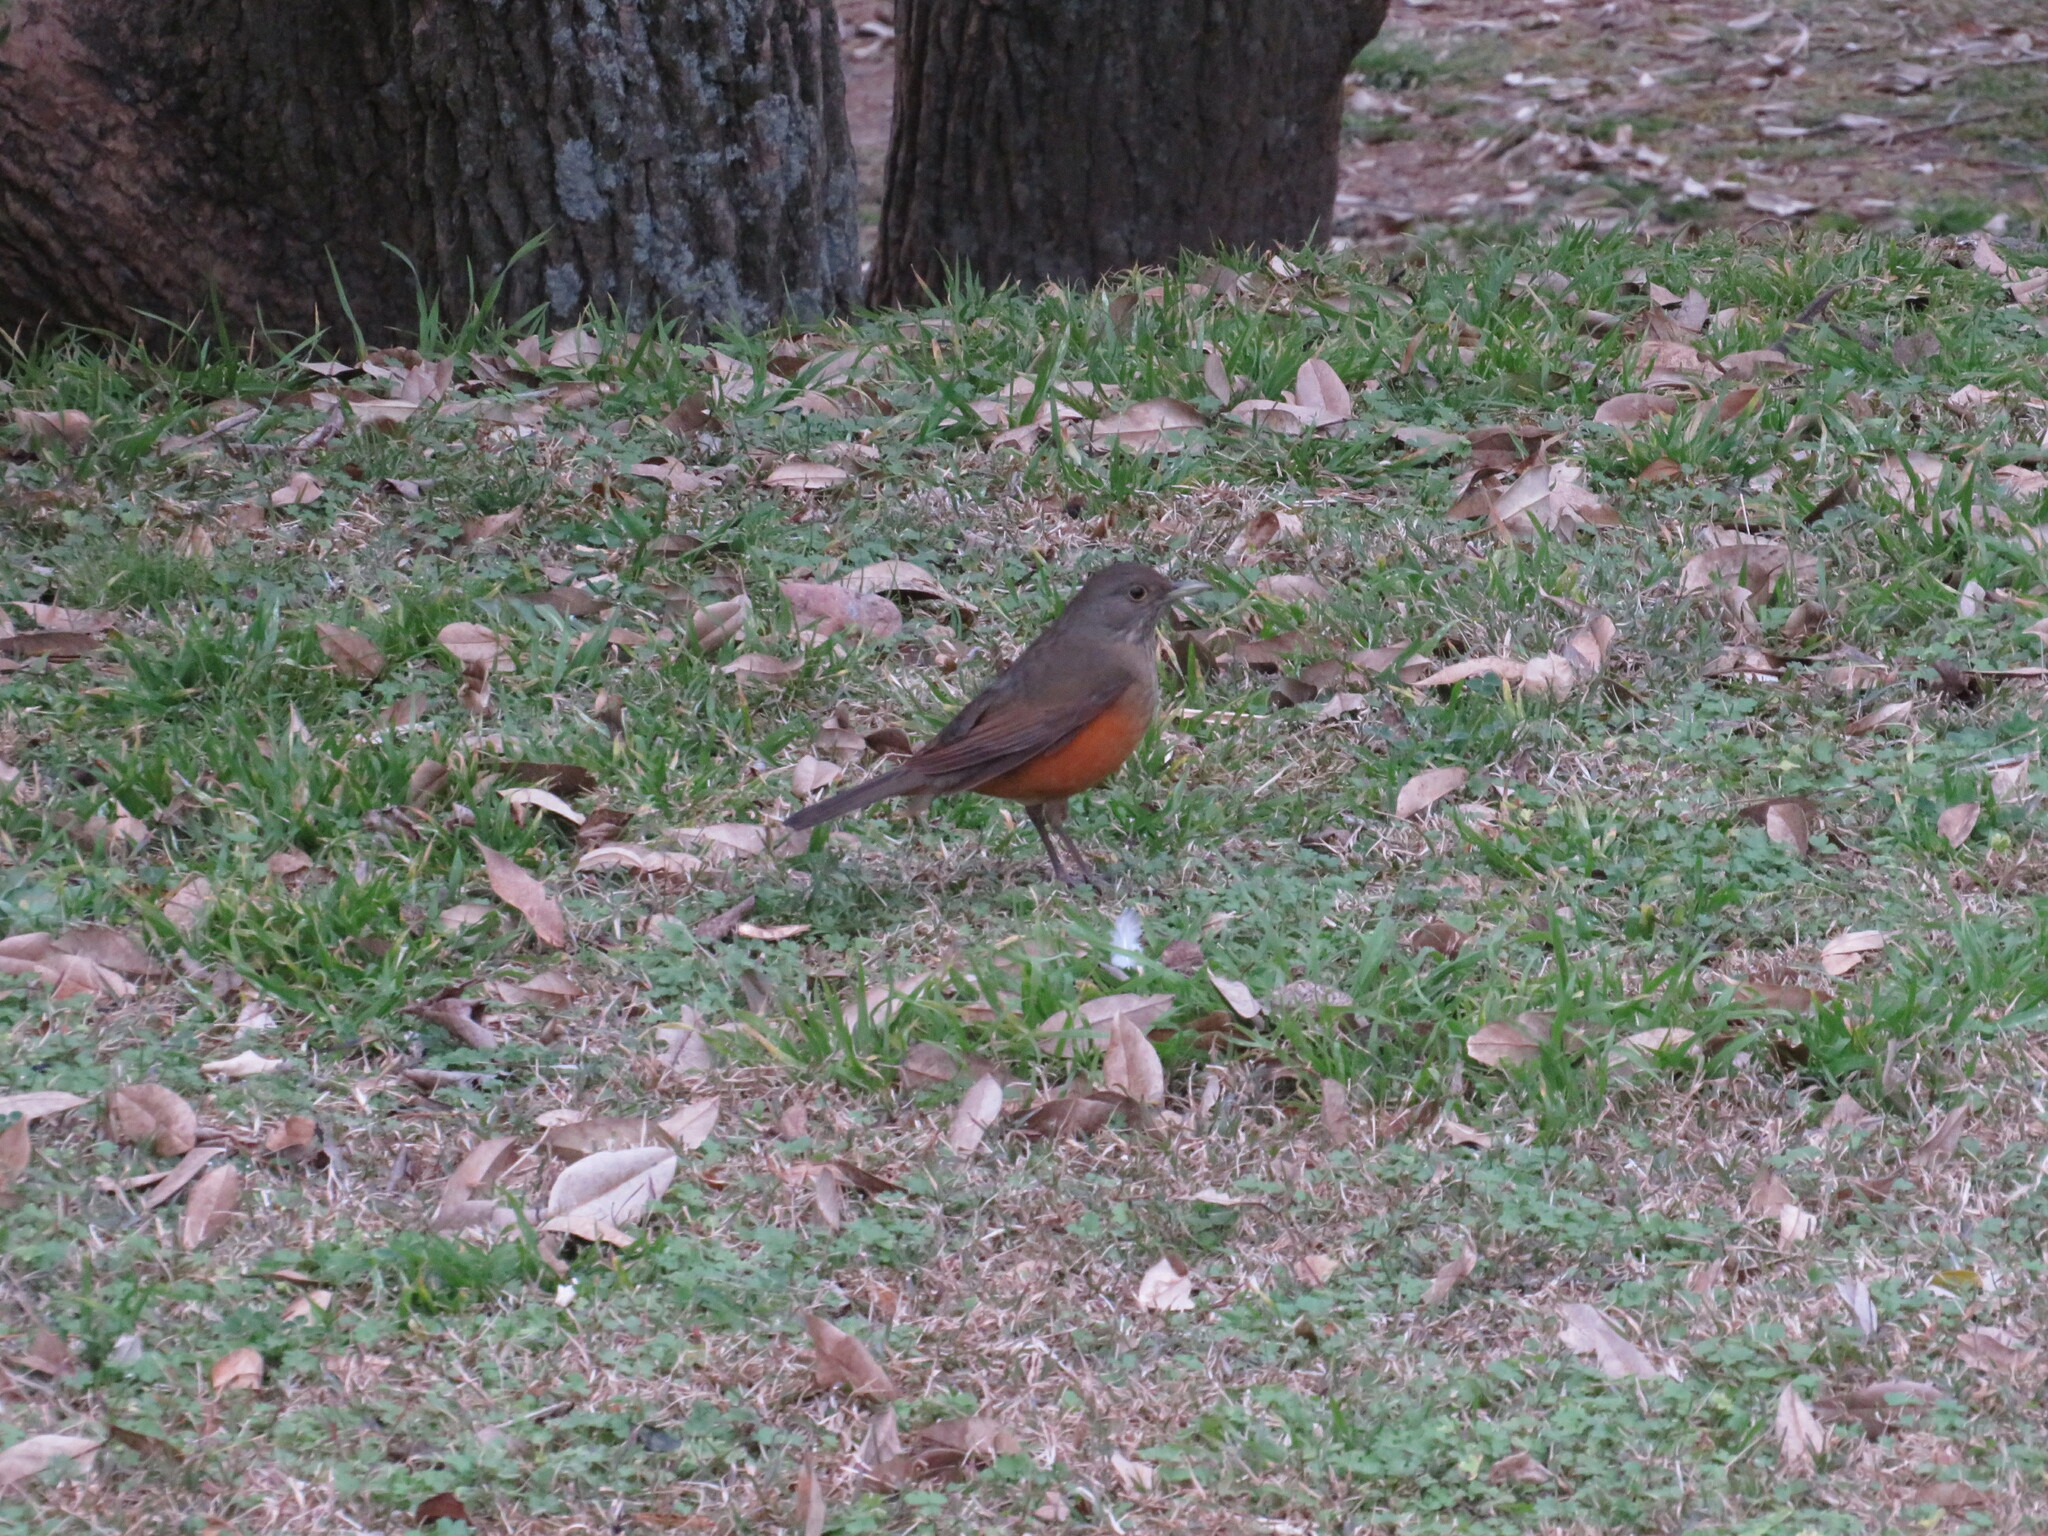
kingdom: Animalia
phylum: Chordata
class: Aves
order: Passeriformes
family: Turdidae
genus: Turdus
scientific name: Turdus rufiventris
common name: Rufous-bellied thrush
